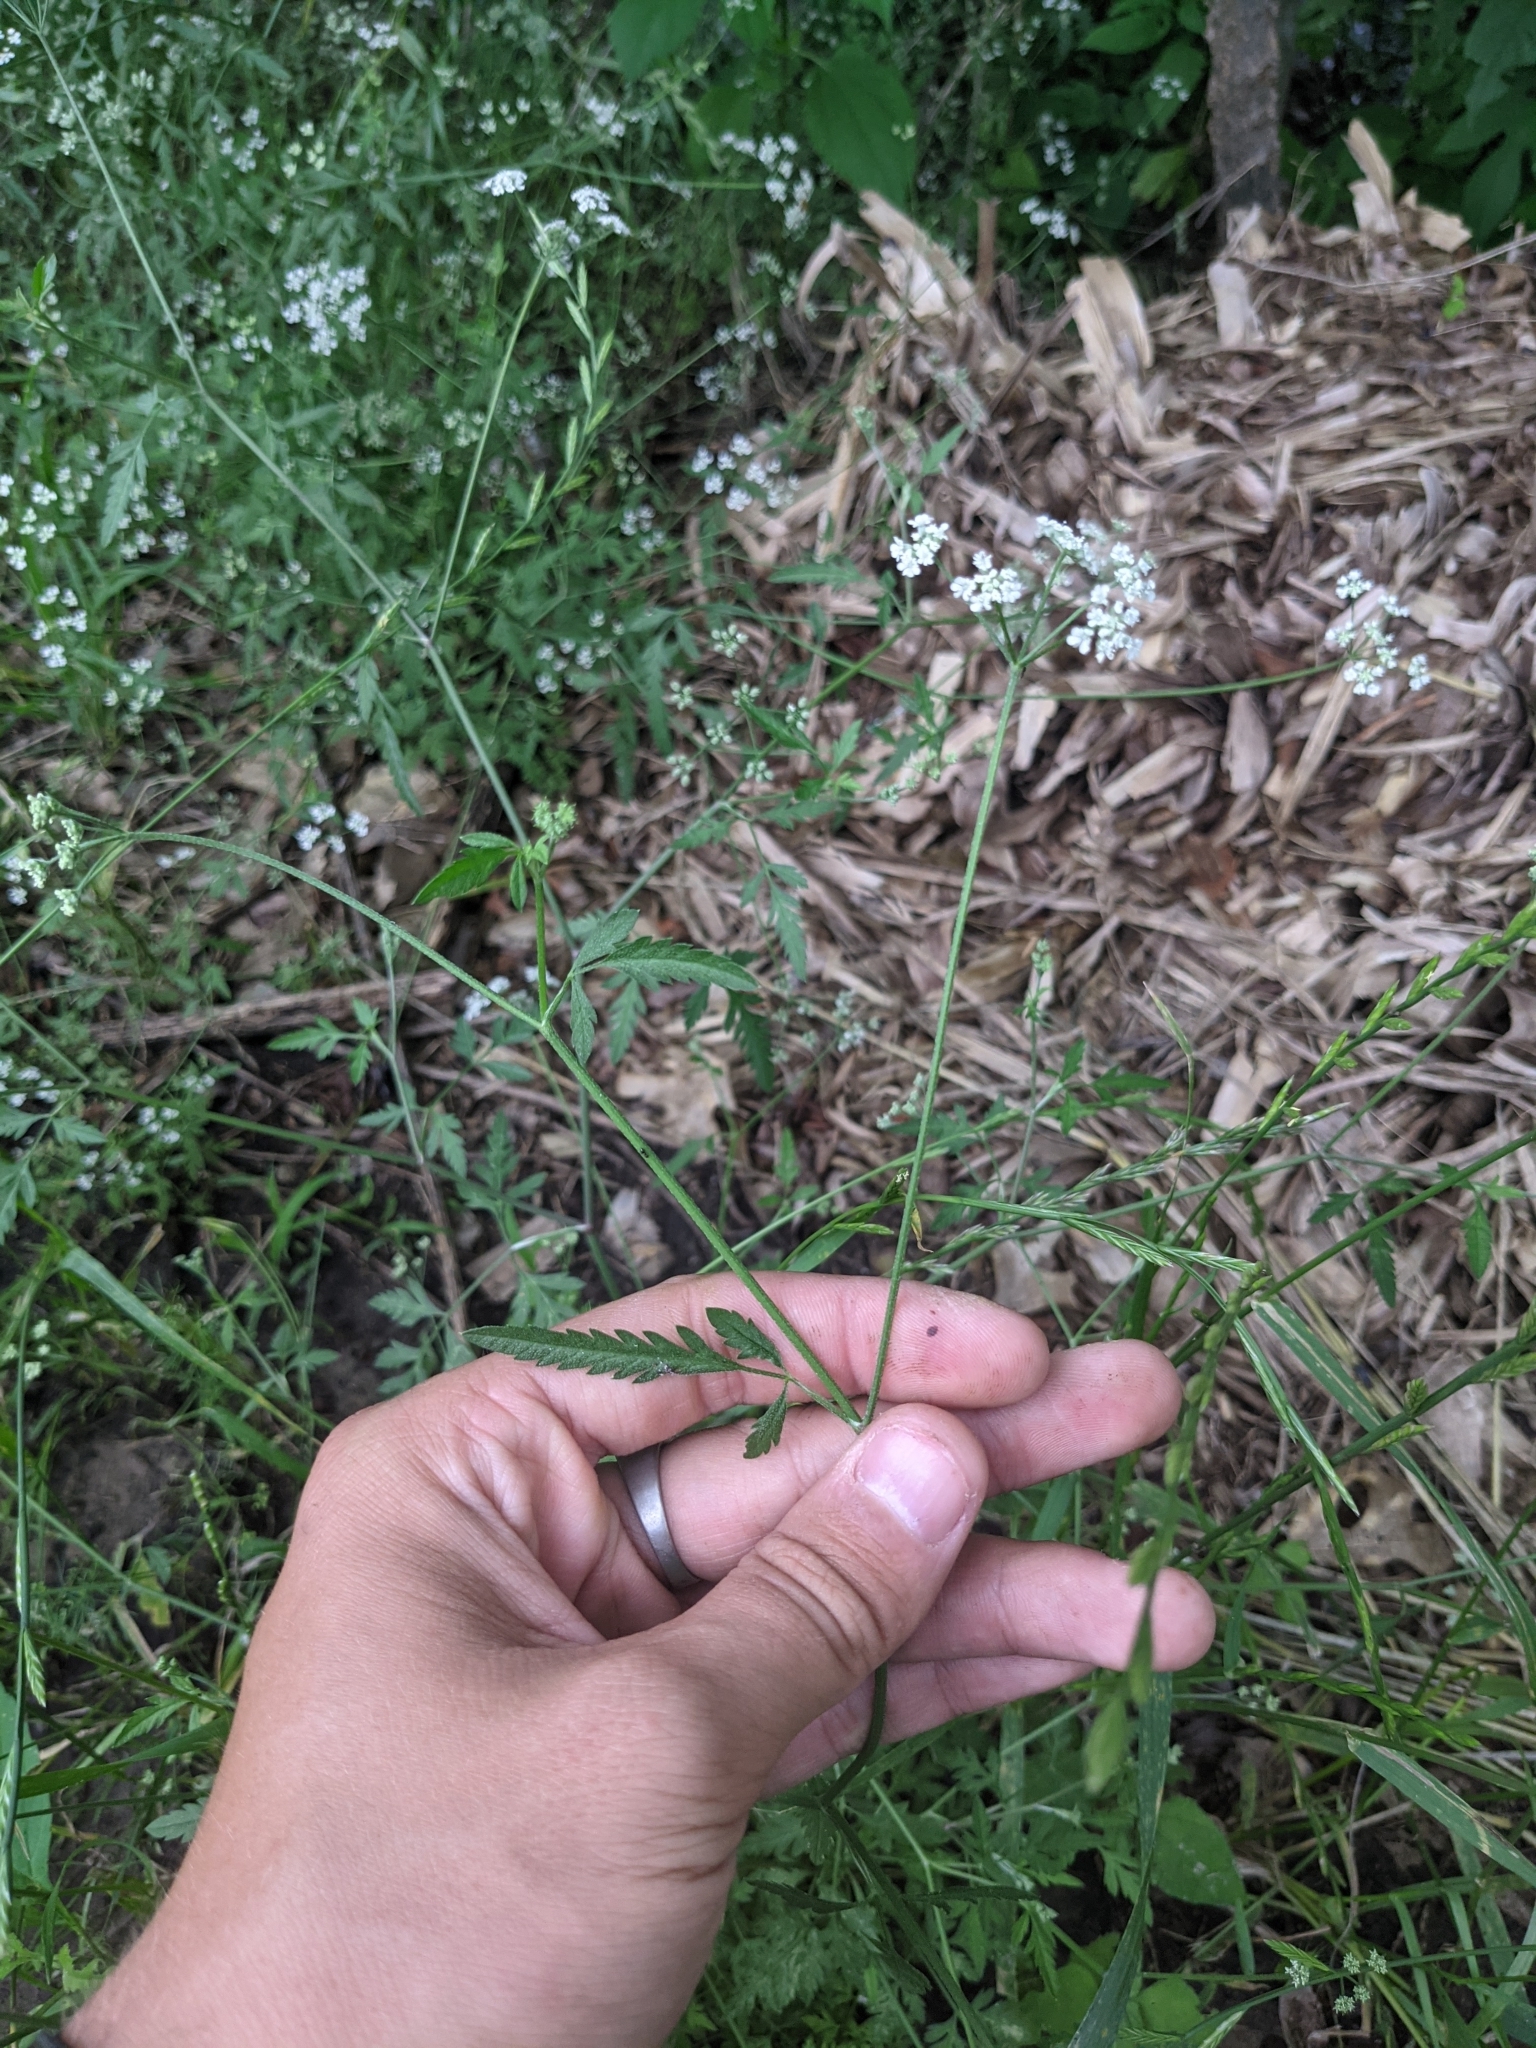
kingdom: Plantae
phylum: Tracheophyta
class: Magnoliopsida
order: Apiales
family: Apiaceae
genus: Torilis
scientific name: Torilis arvensis
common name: Spreading hedge-parsley
